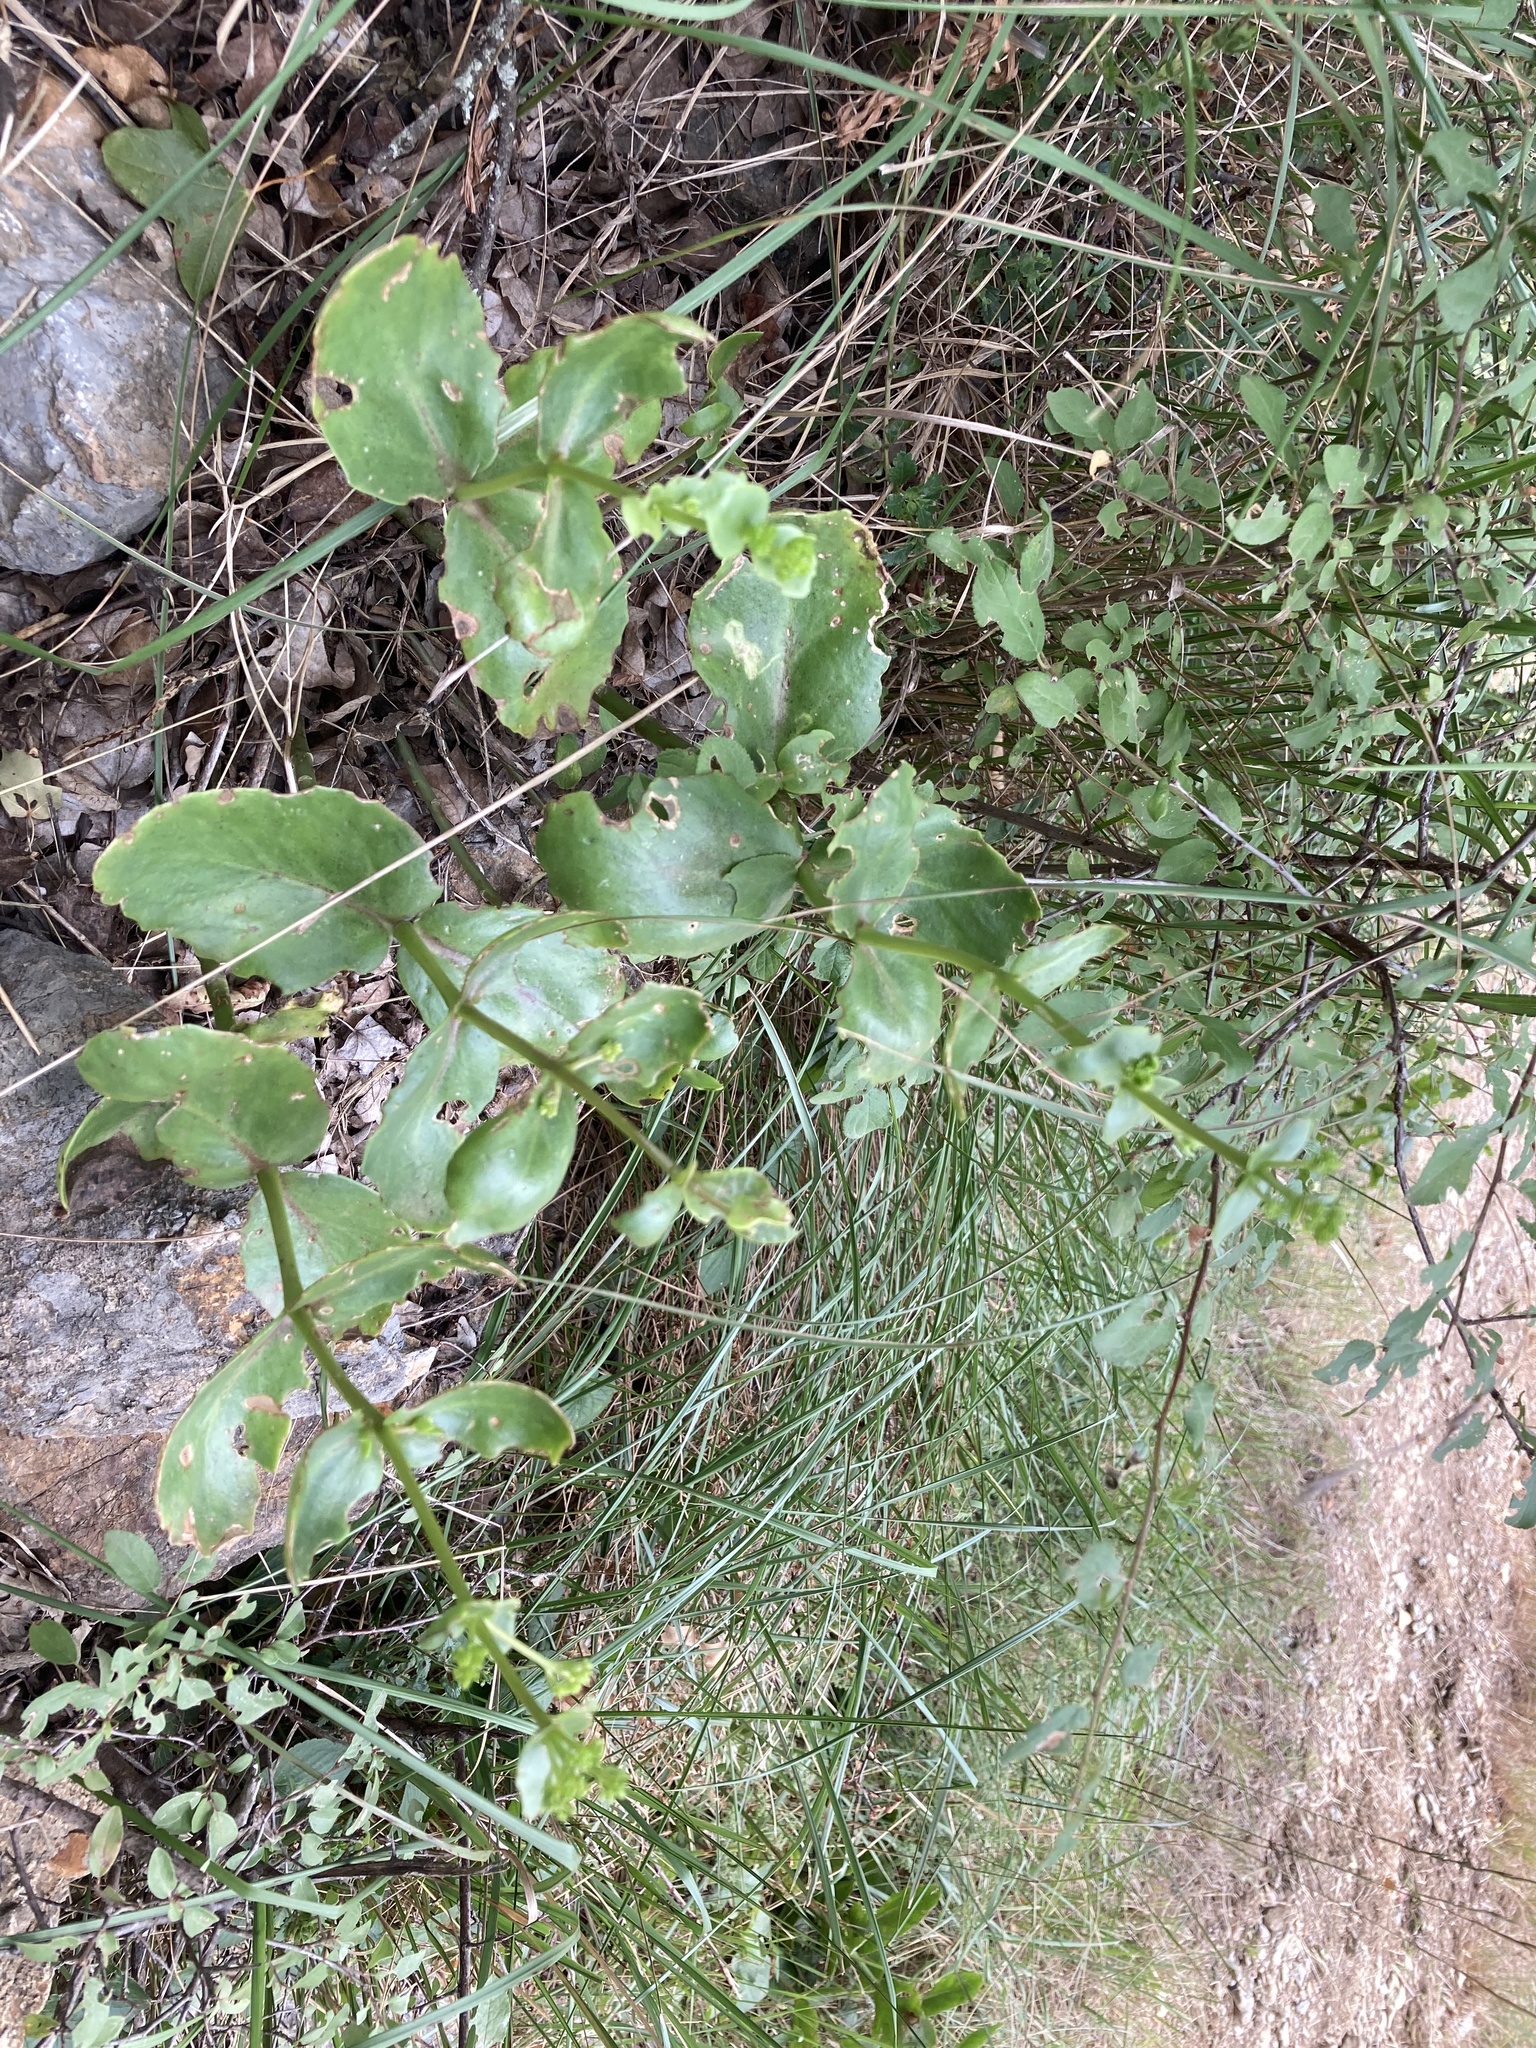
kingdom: Plantae
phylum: Tracheophyta
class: Magnoliopsida
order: Saxifragales
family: Crassulaceae
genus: Hylotelephium
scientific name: Hylotelephium maximum
